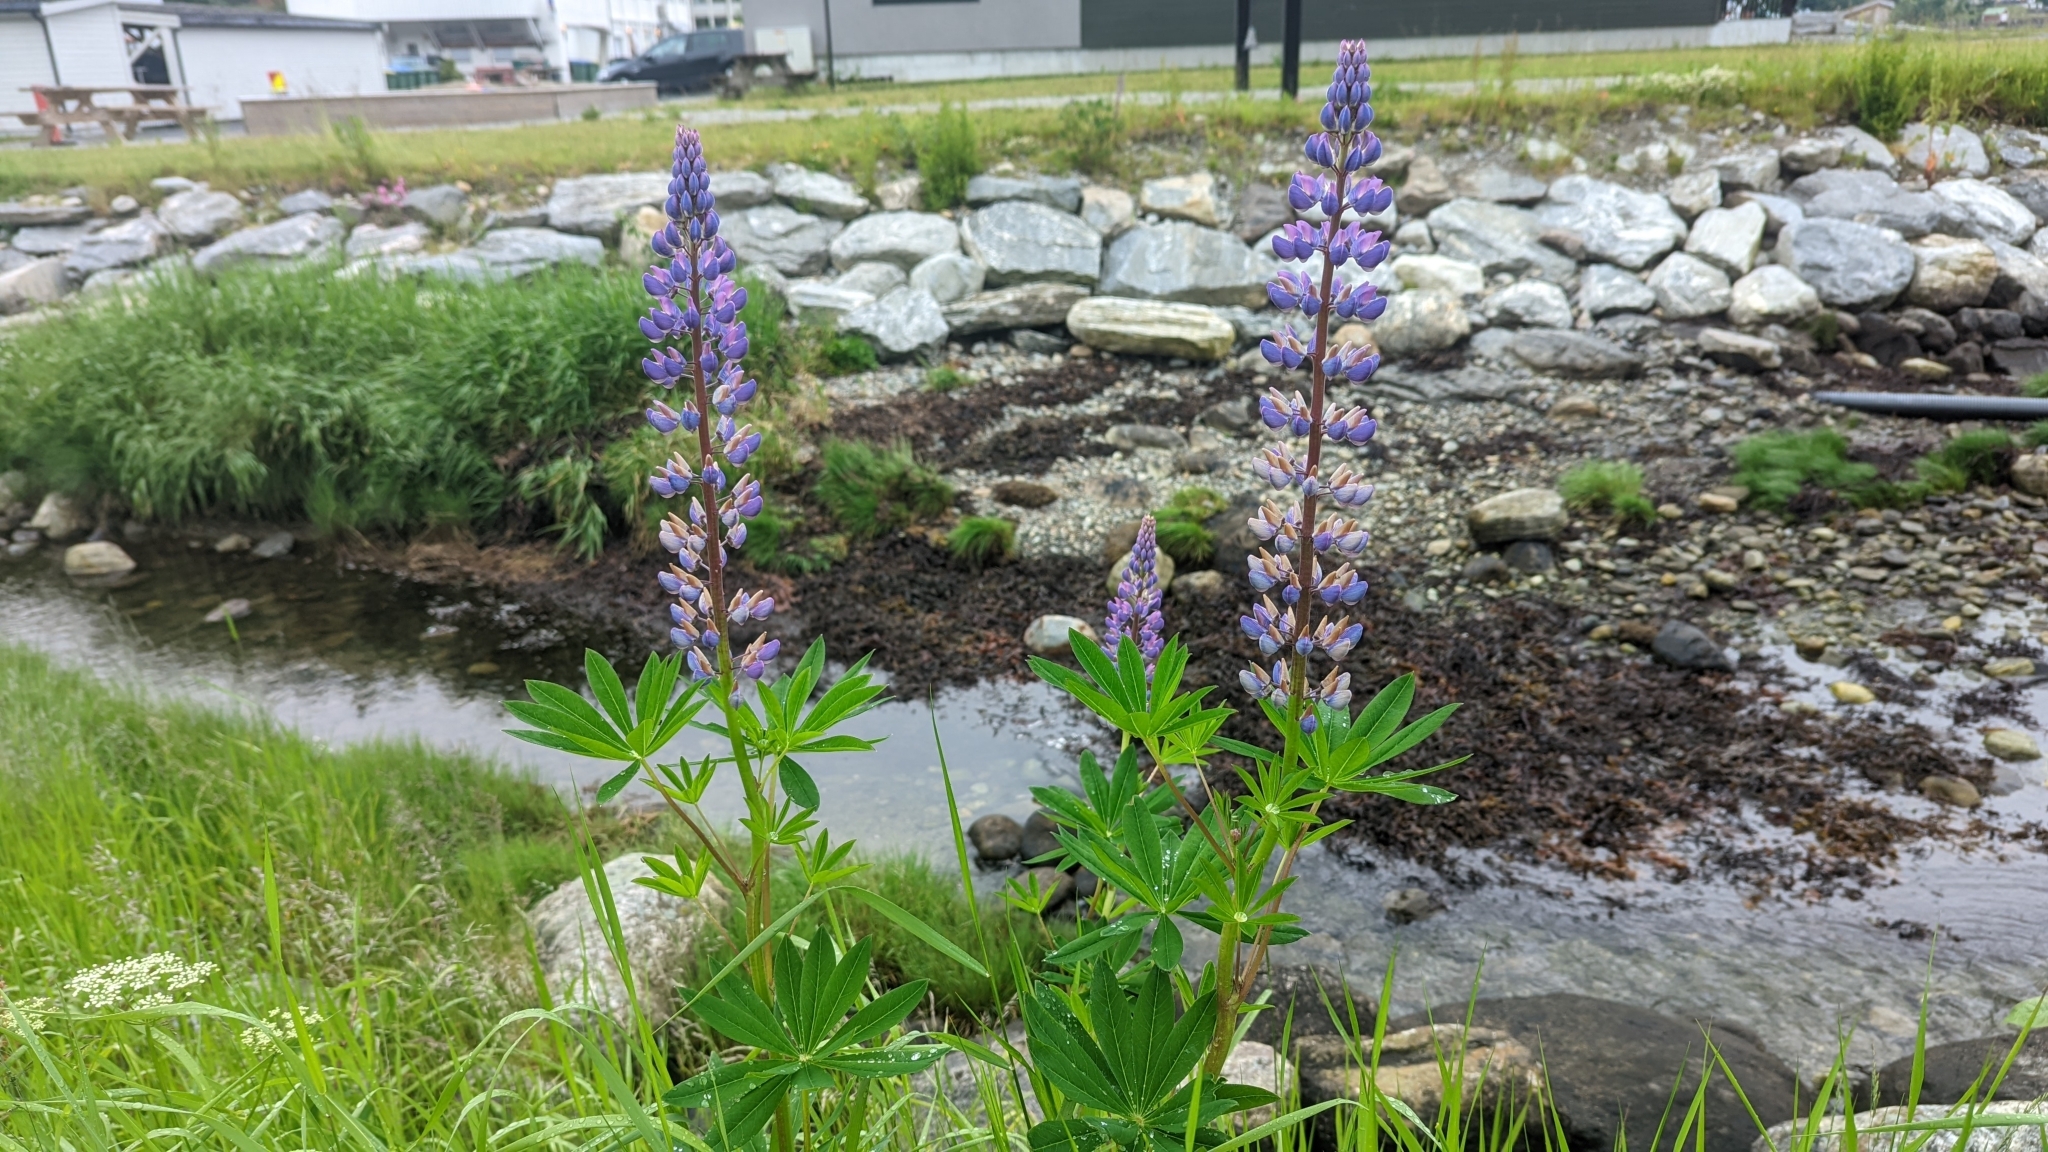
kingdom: Plantae
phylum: Tracheophyta
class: Magnoliopsida
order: Fabales
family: Fabaceae
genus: Lupinus
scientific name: Lupinus polyphyllus
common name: Garden lupin
